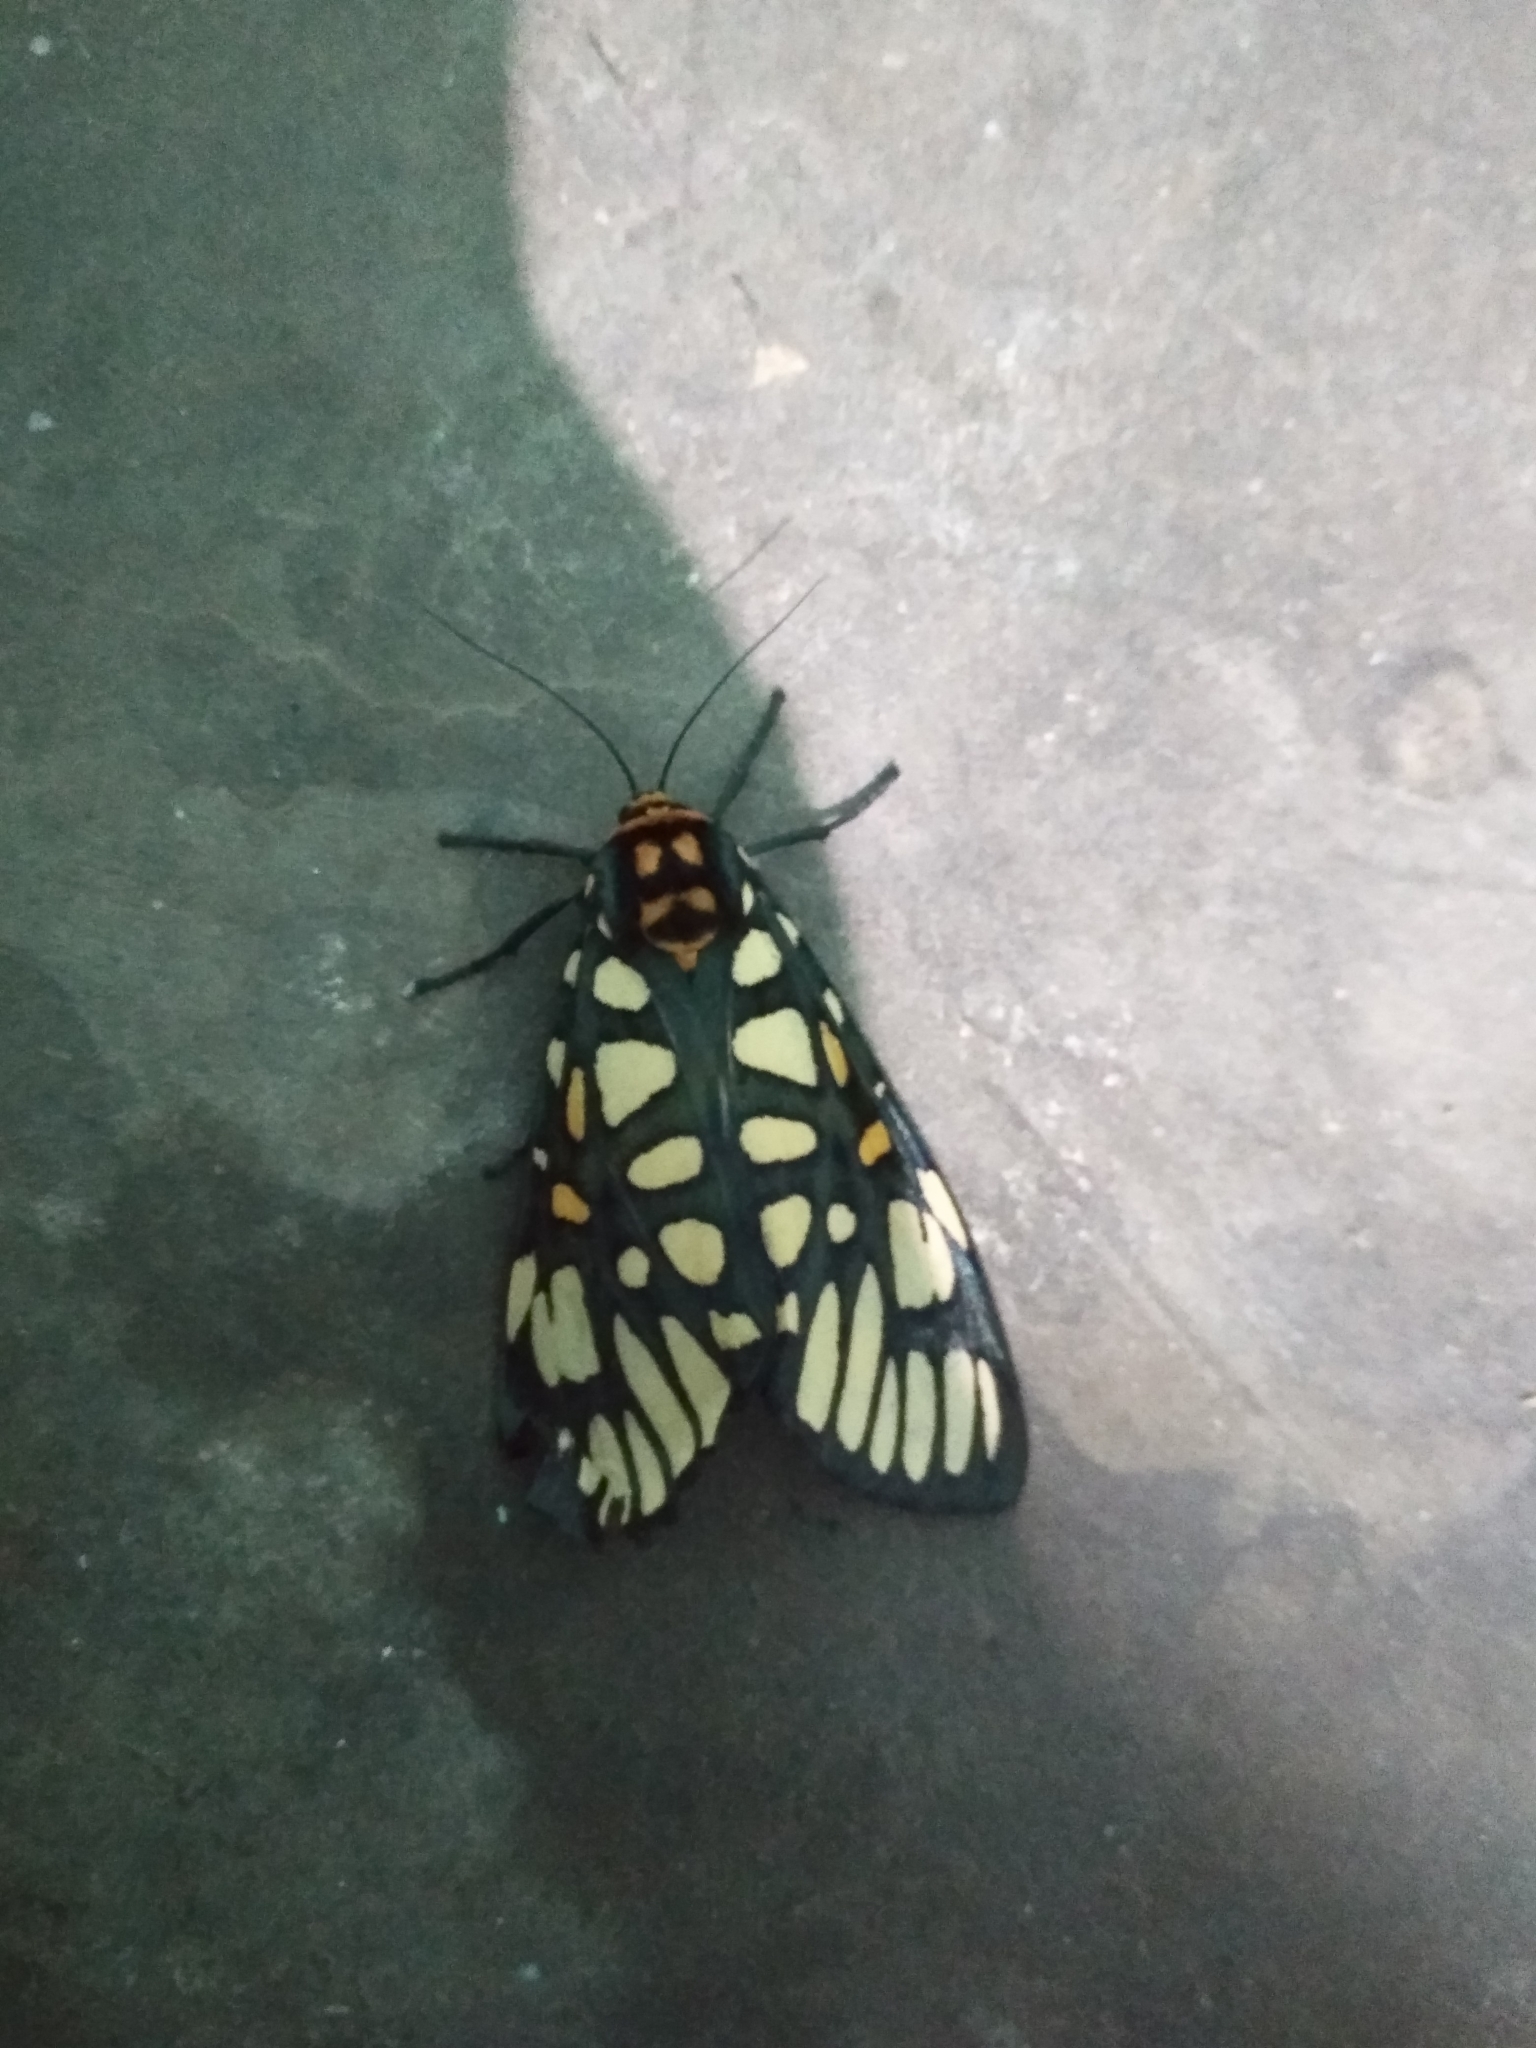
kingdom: Animalia
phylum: Arthropoda
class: Insecta
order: Lepidoptera
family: Erebidae
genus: Aglaomorpha
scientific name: Aglaomorpha plagiata
